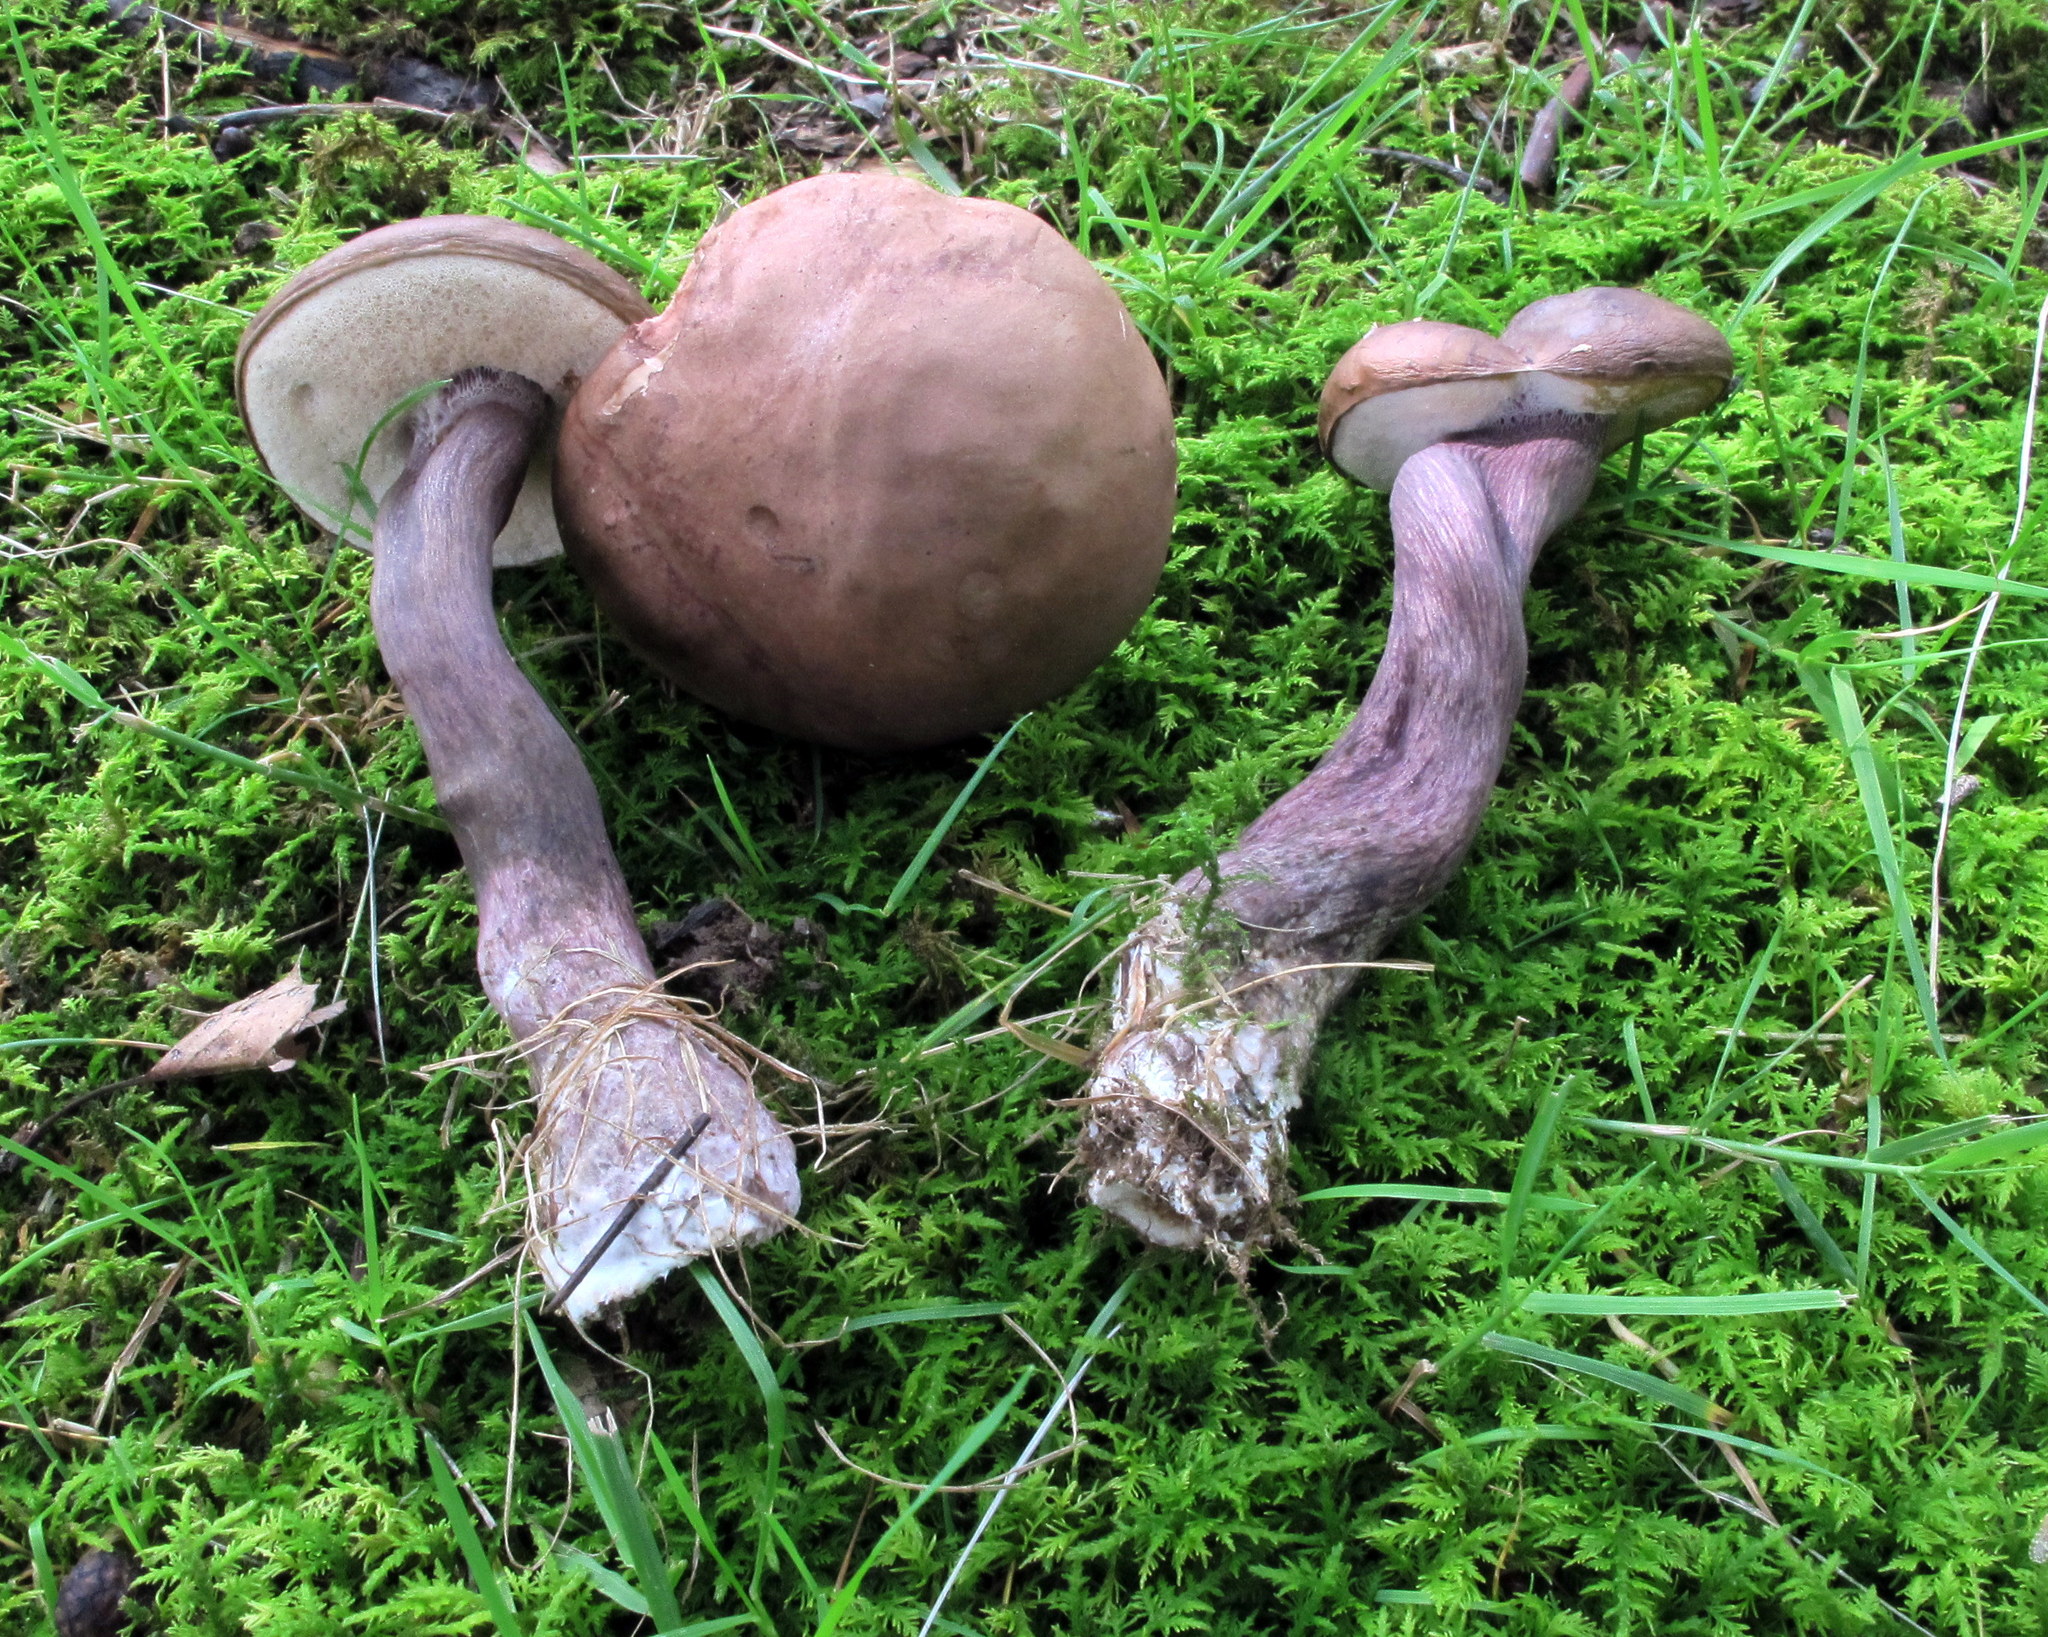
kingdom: Fungi
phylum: Basidiomycota
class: Agaricomycetes
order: Boletales
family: Boletaceae
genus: Tylopilus
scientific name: Tylopilus plumbeoviolaceus
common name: Violet gray bolete
